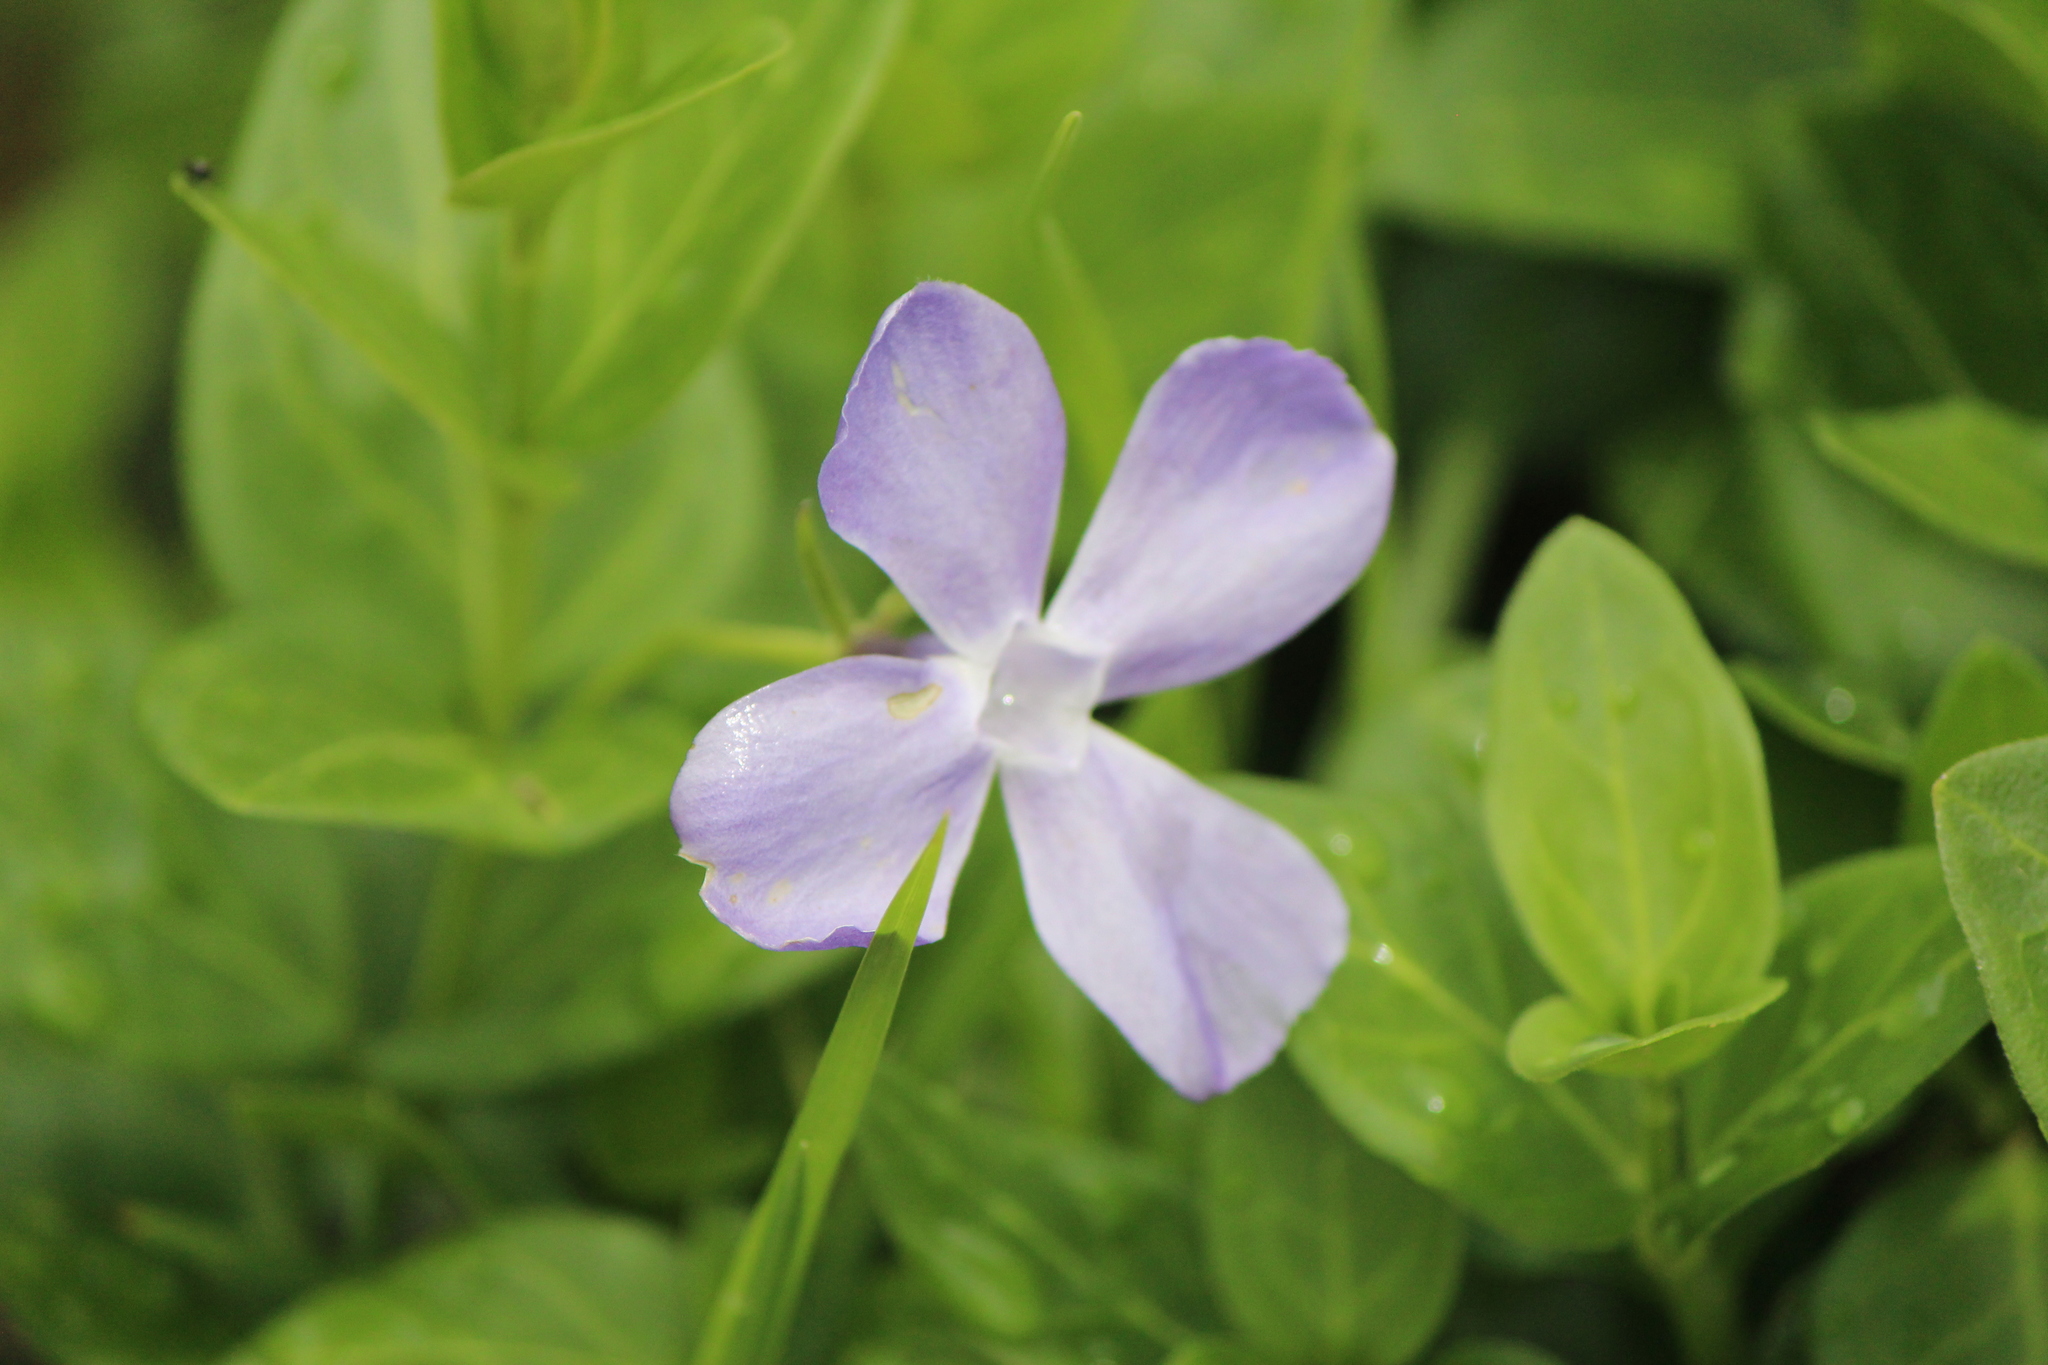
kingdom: Plantae
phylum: Tracheophyta
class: Magnoliopsida
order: Gentianales
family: Apocynaceae
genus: Vinca
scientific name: Vinca major
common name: Greater periwinkle
